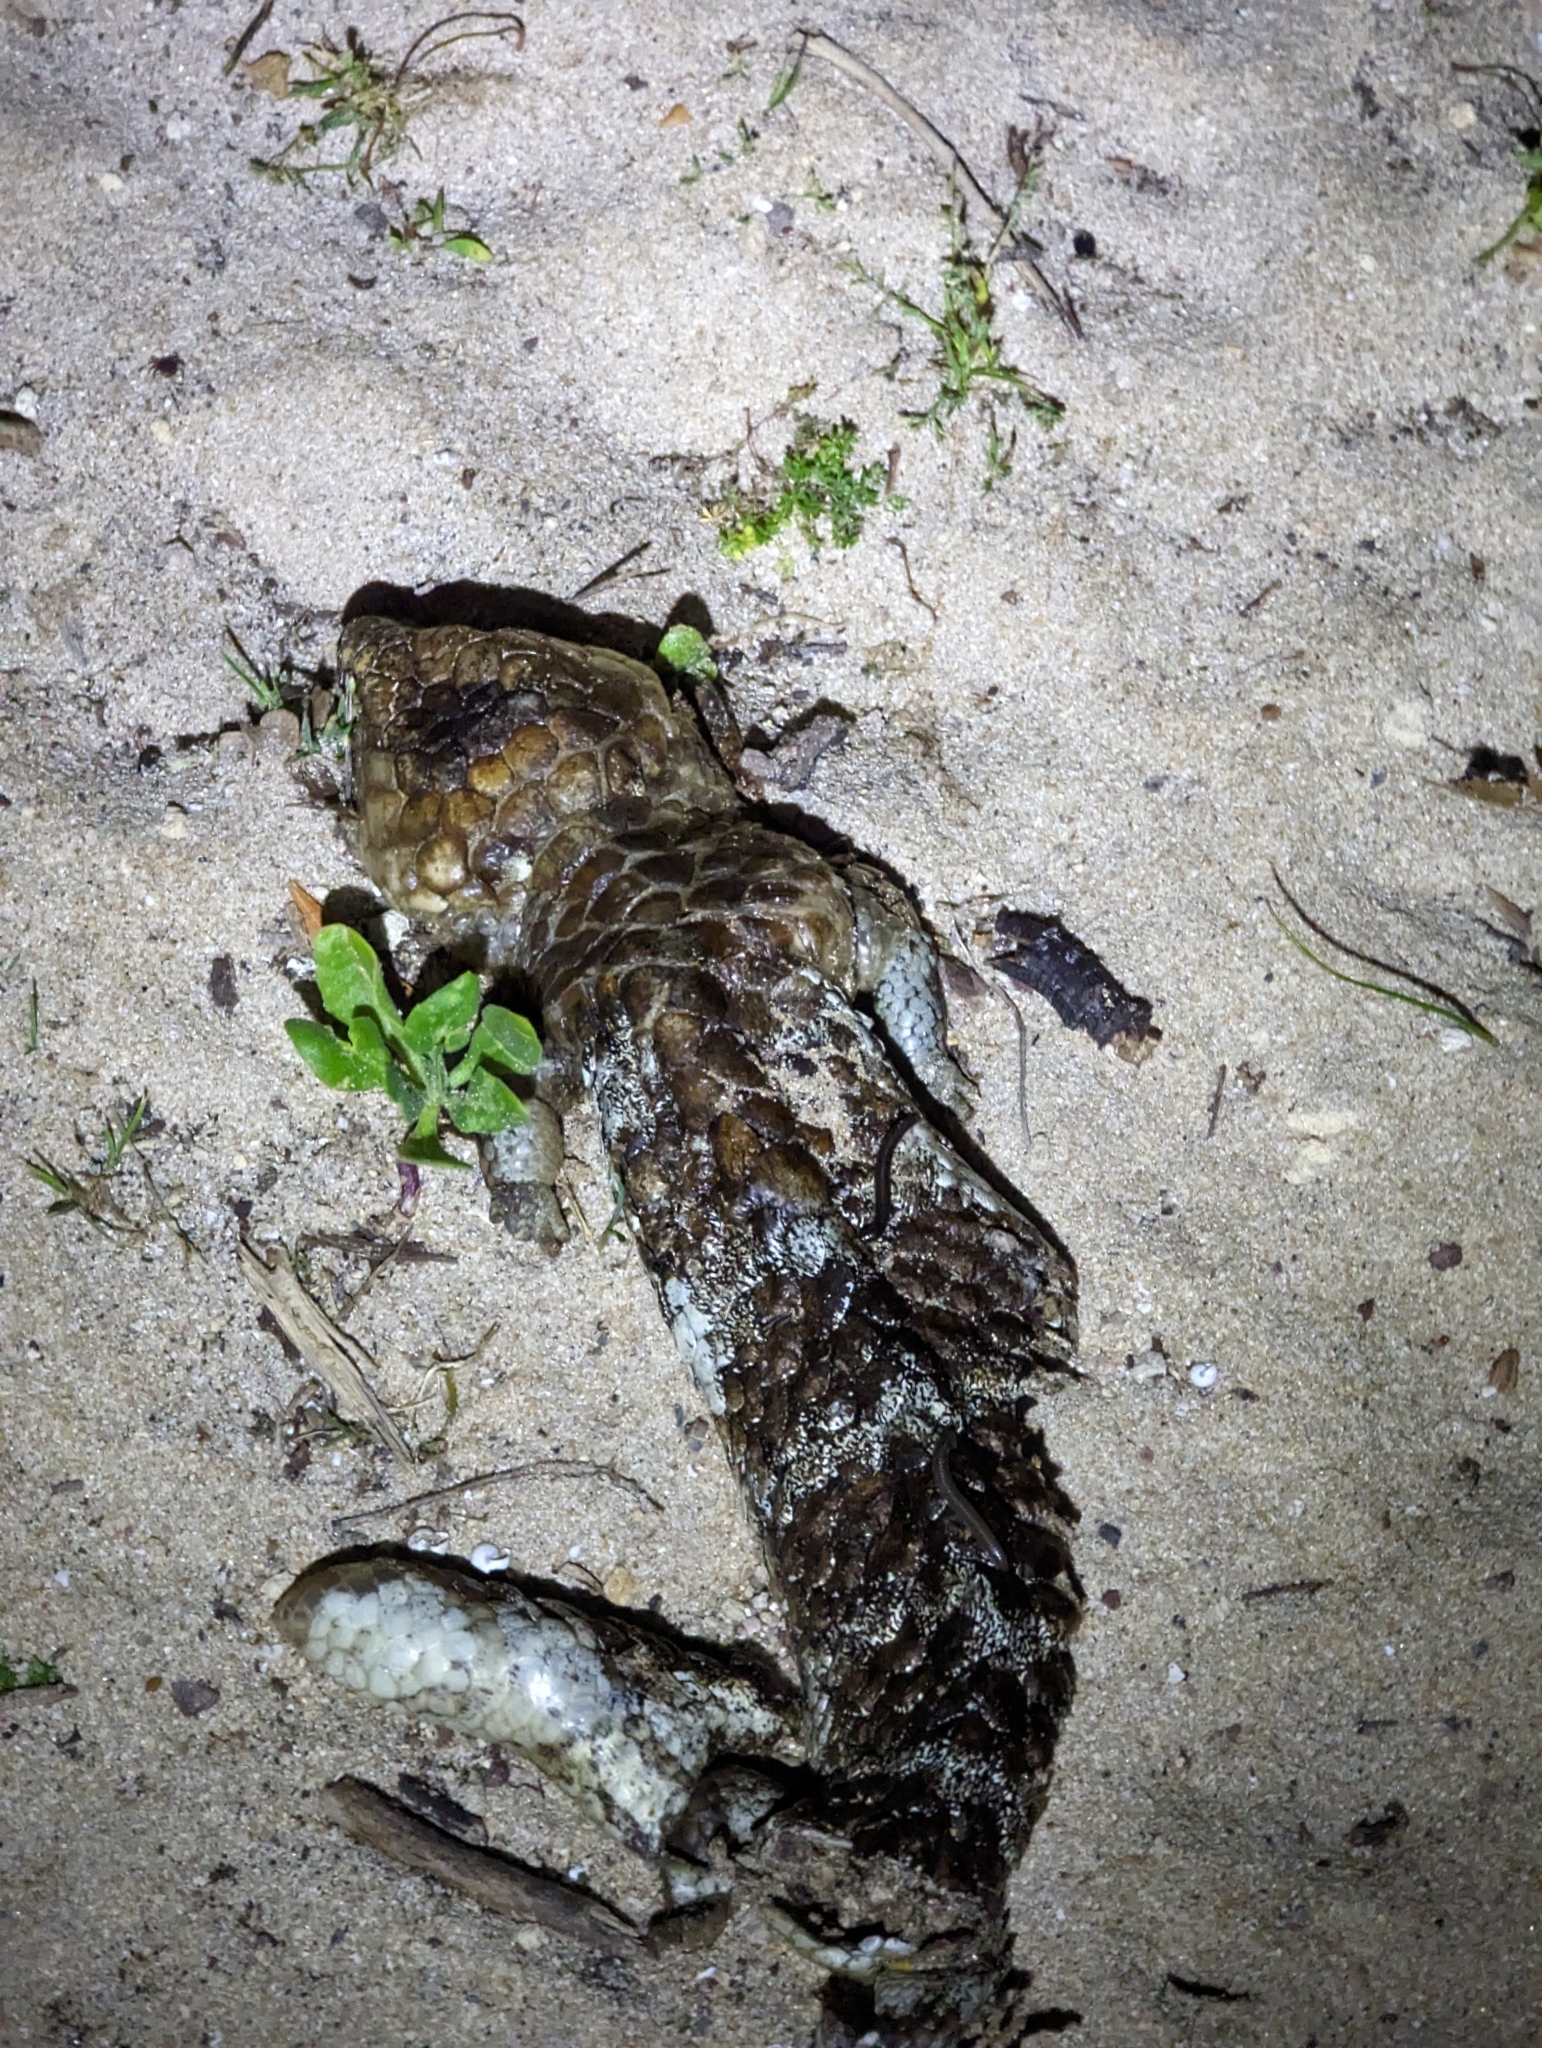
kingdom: Animalia
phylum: Chordata
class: Squamata
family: Scincidae
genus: Tiliqua
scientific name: Tiliqua rugosa
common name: Pinecone lizard
